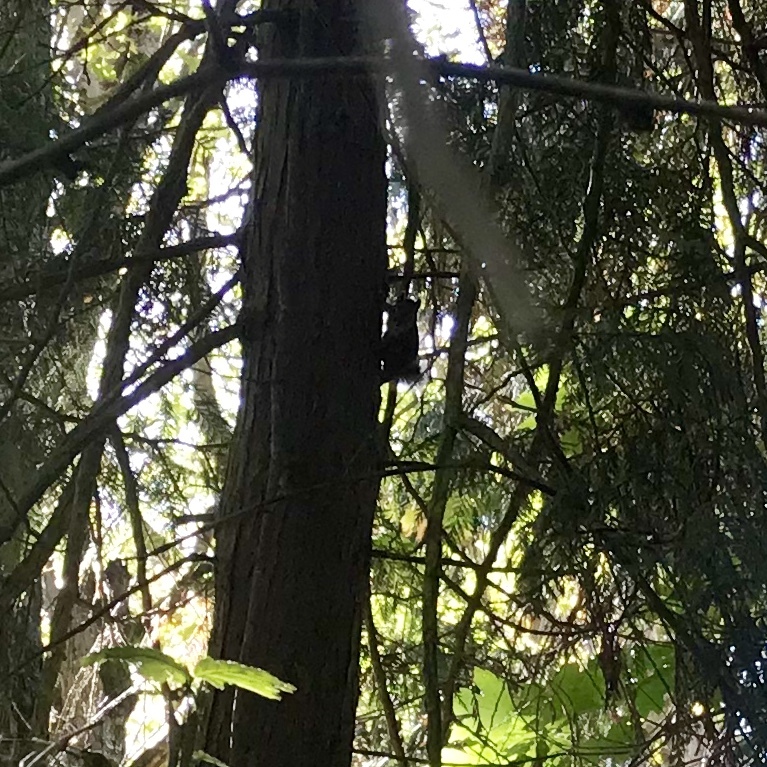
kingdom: Animalia
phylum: Chordata
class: Mammalia
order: Rodentia
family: Sciuridae
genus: Tamiasciurus
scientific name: Tamiasciurus douglasii
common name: Douglas's squirrel
